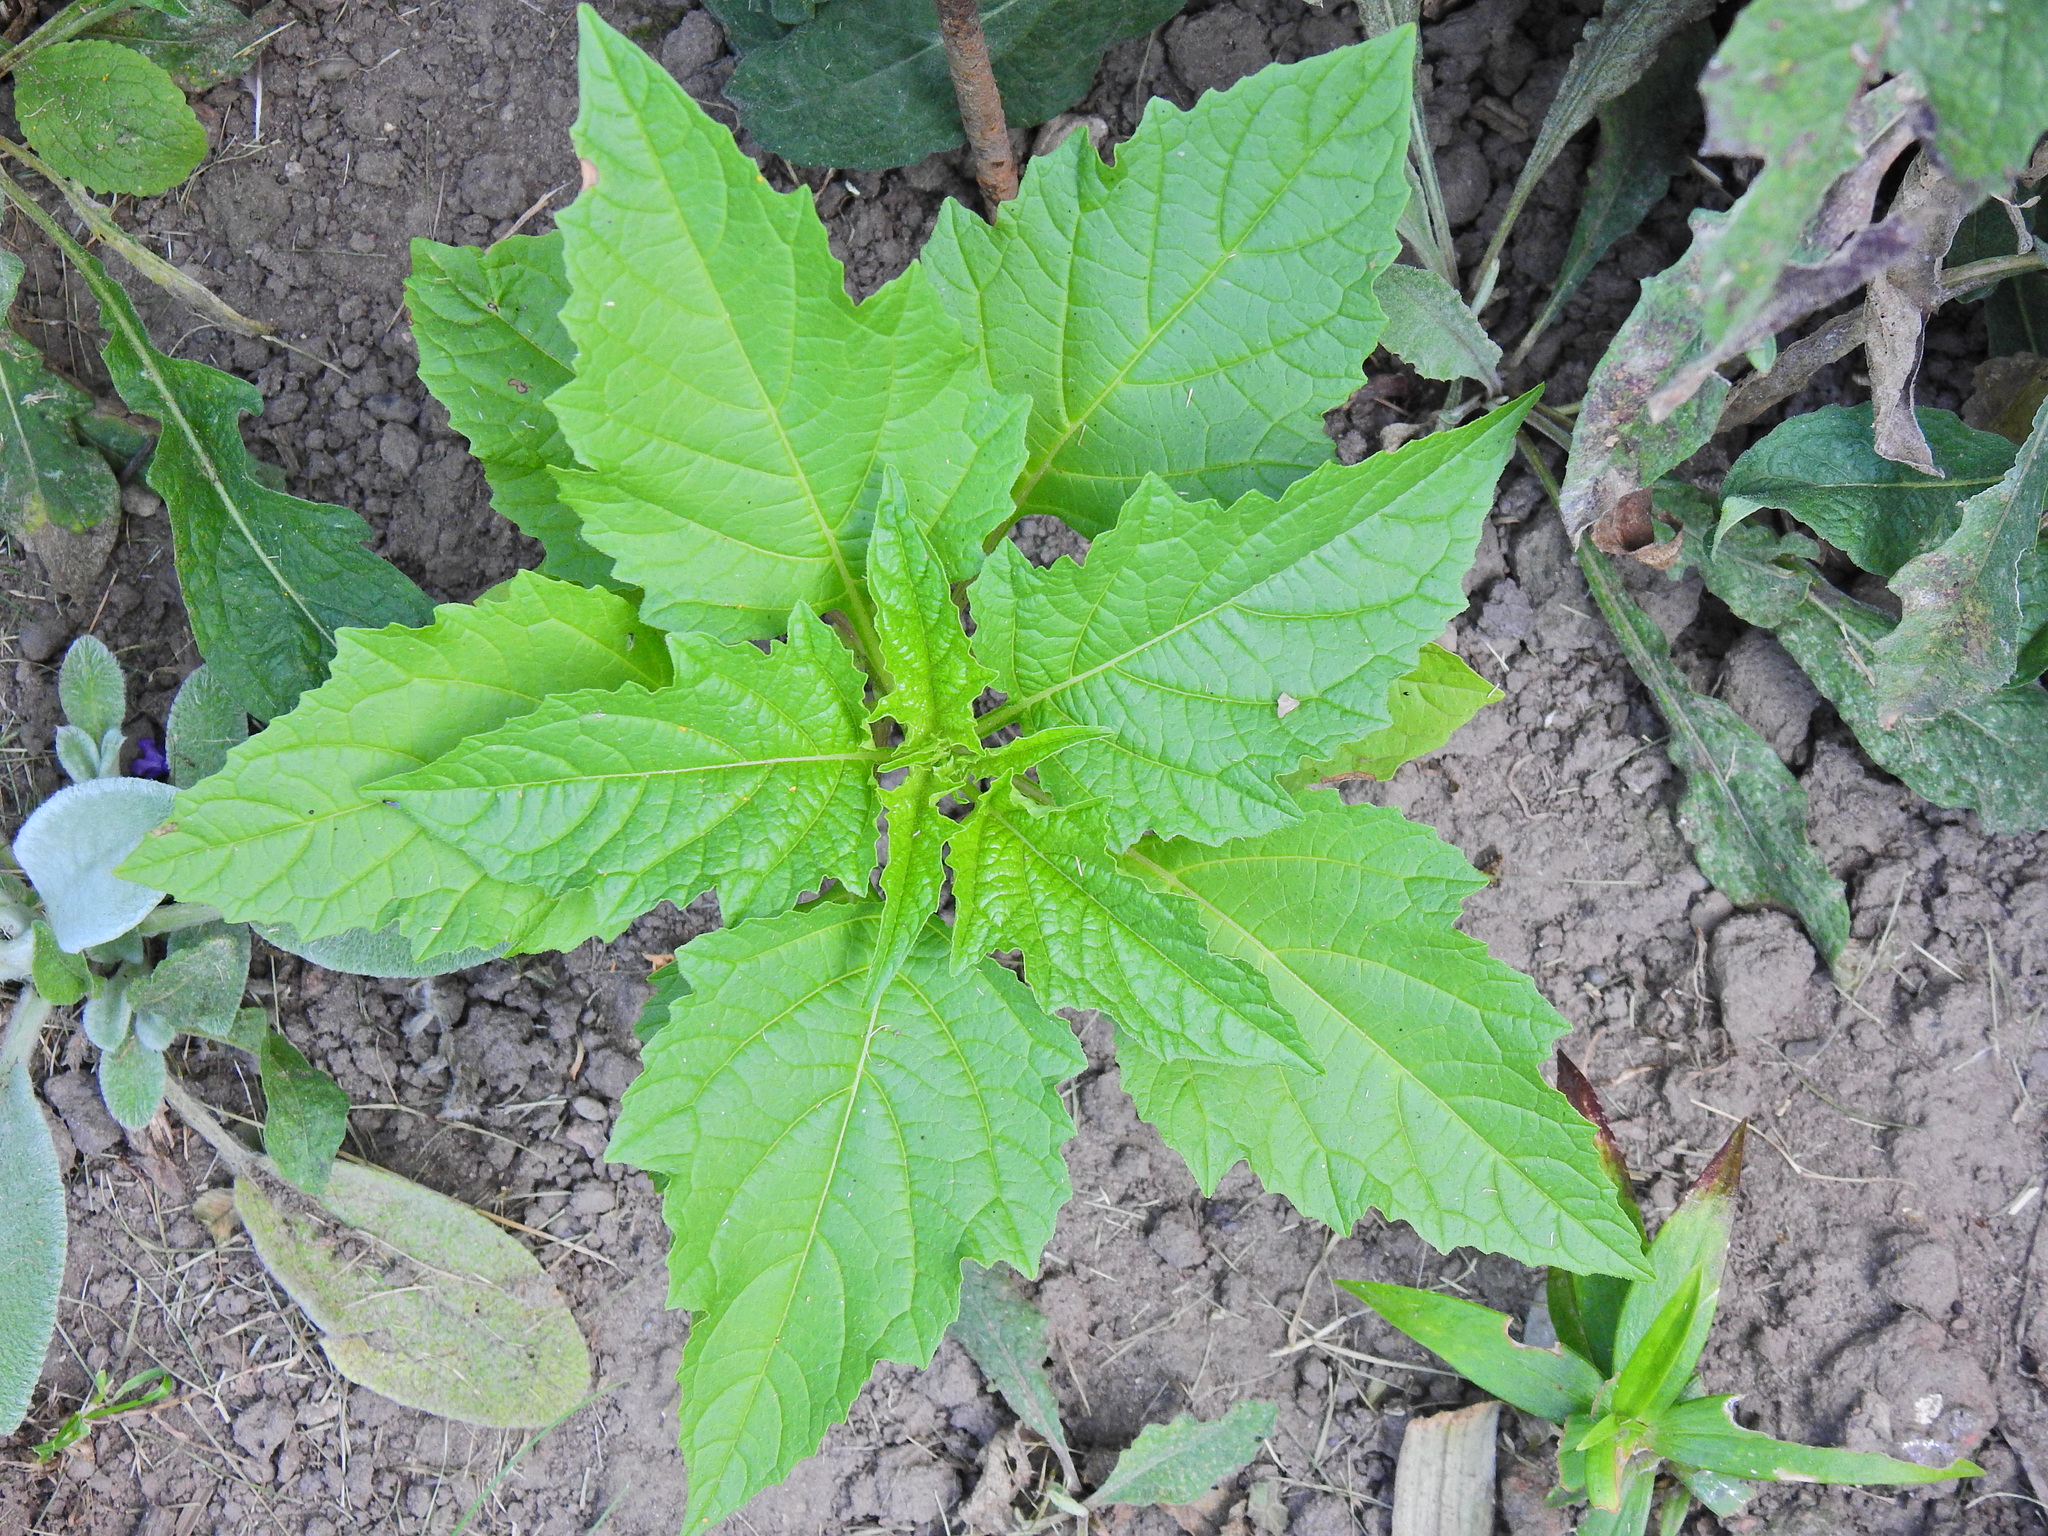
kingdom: Plantae
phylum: Tracheophyta
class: Magnoliopsida
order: Solanales
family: Solanaceae
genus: Nicandra
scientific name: Nicandra physalodes
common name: Apple-of-peru
